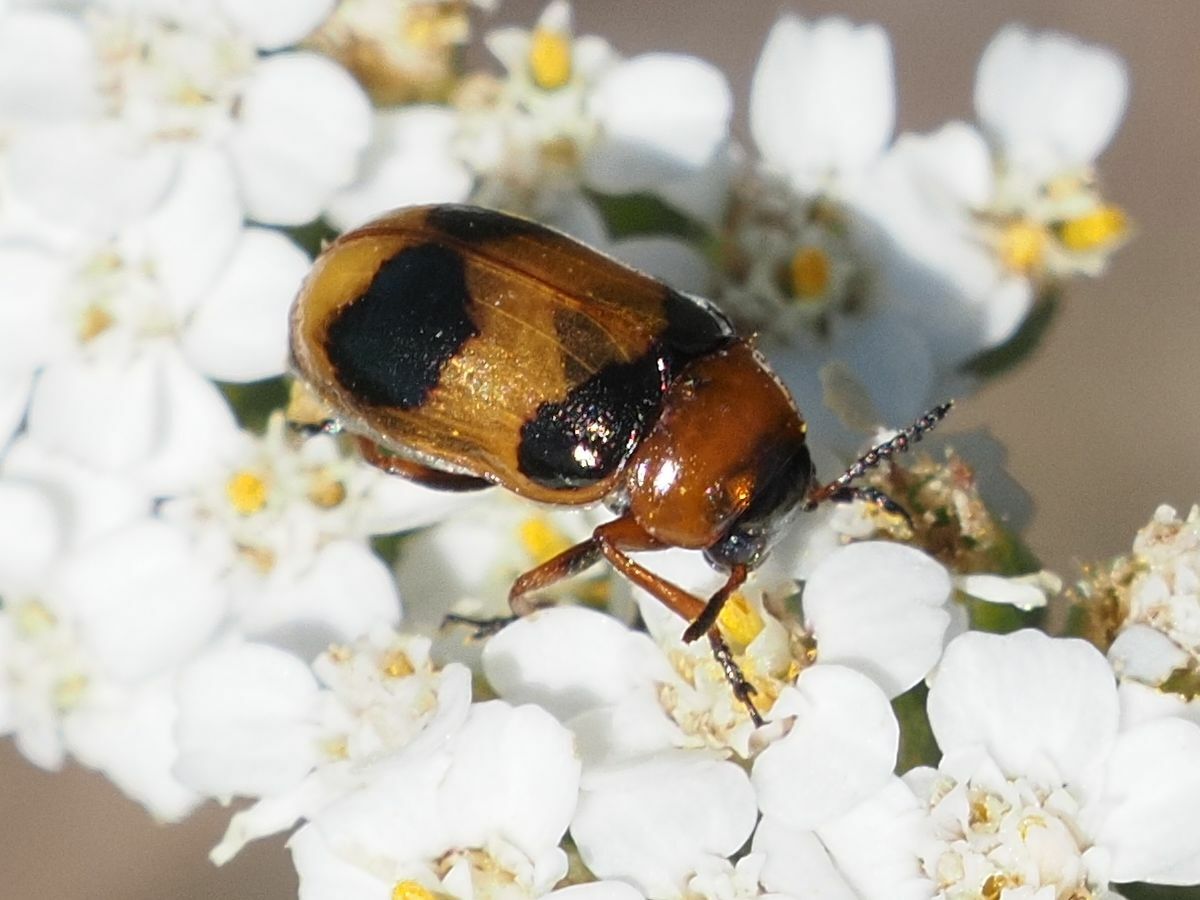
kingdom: Animalia
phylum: Arthropoda
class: Insecta
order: Coleoptera
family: Chrysomelidae
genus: Coptocephala
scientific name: Coptocephala unifasciata
